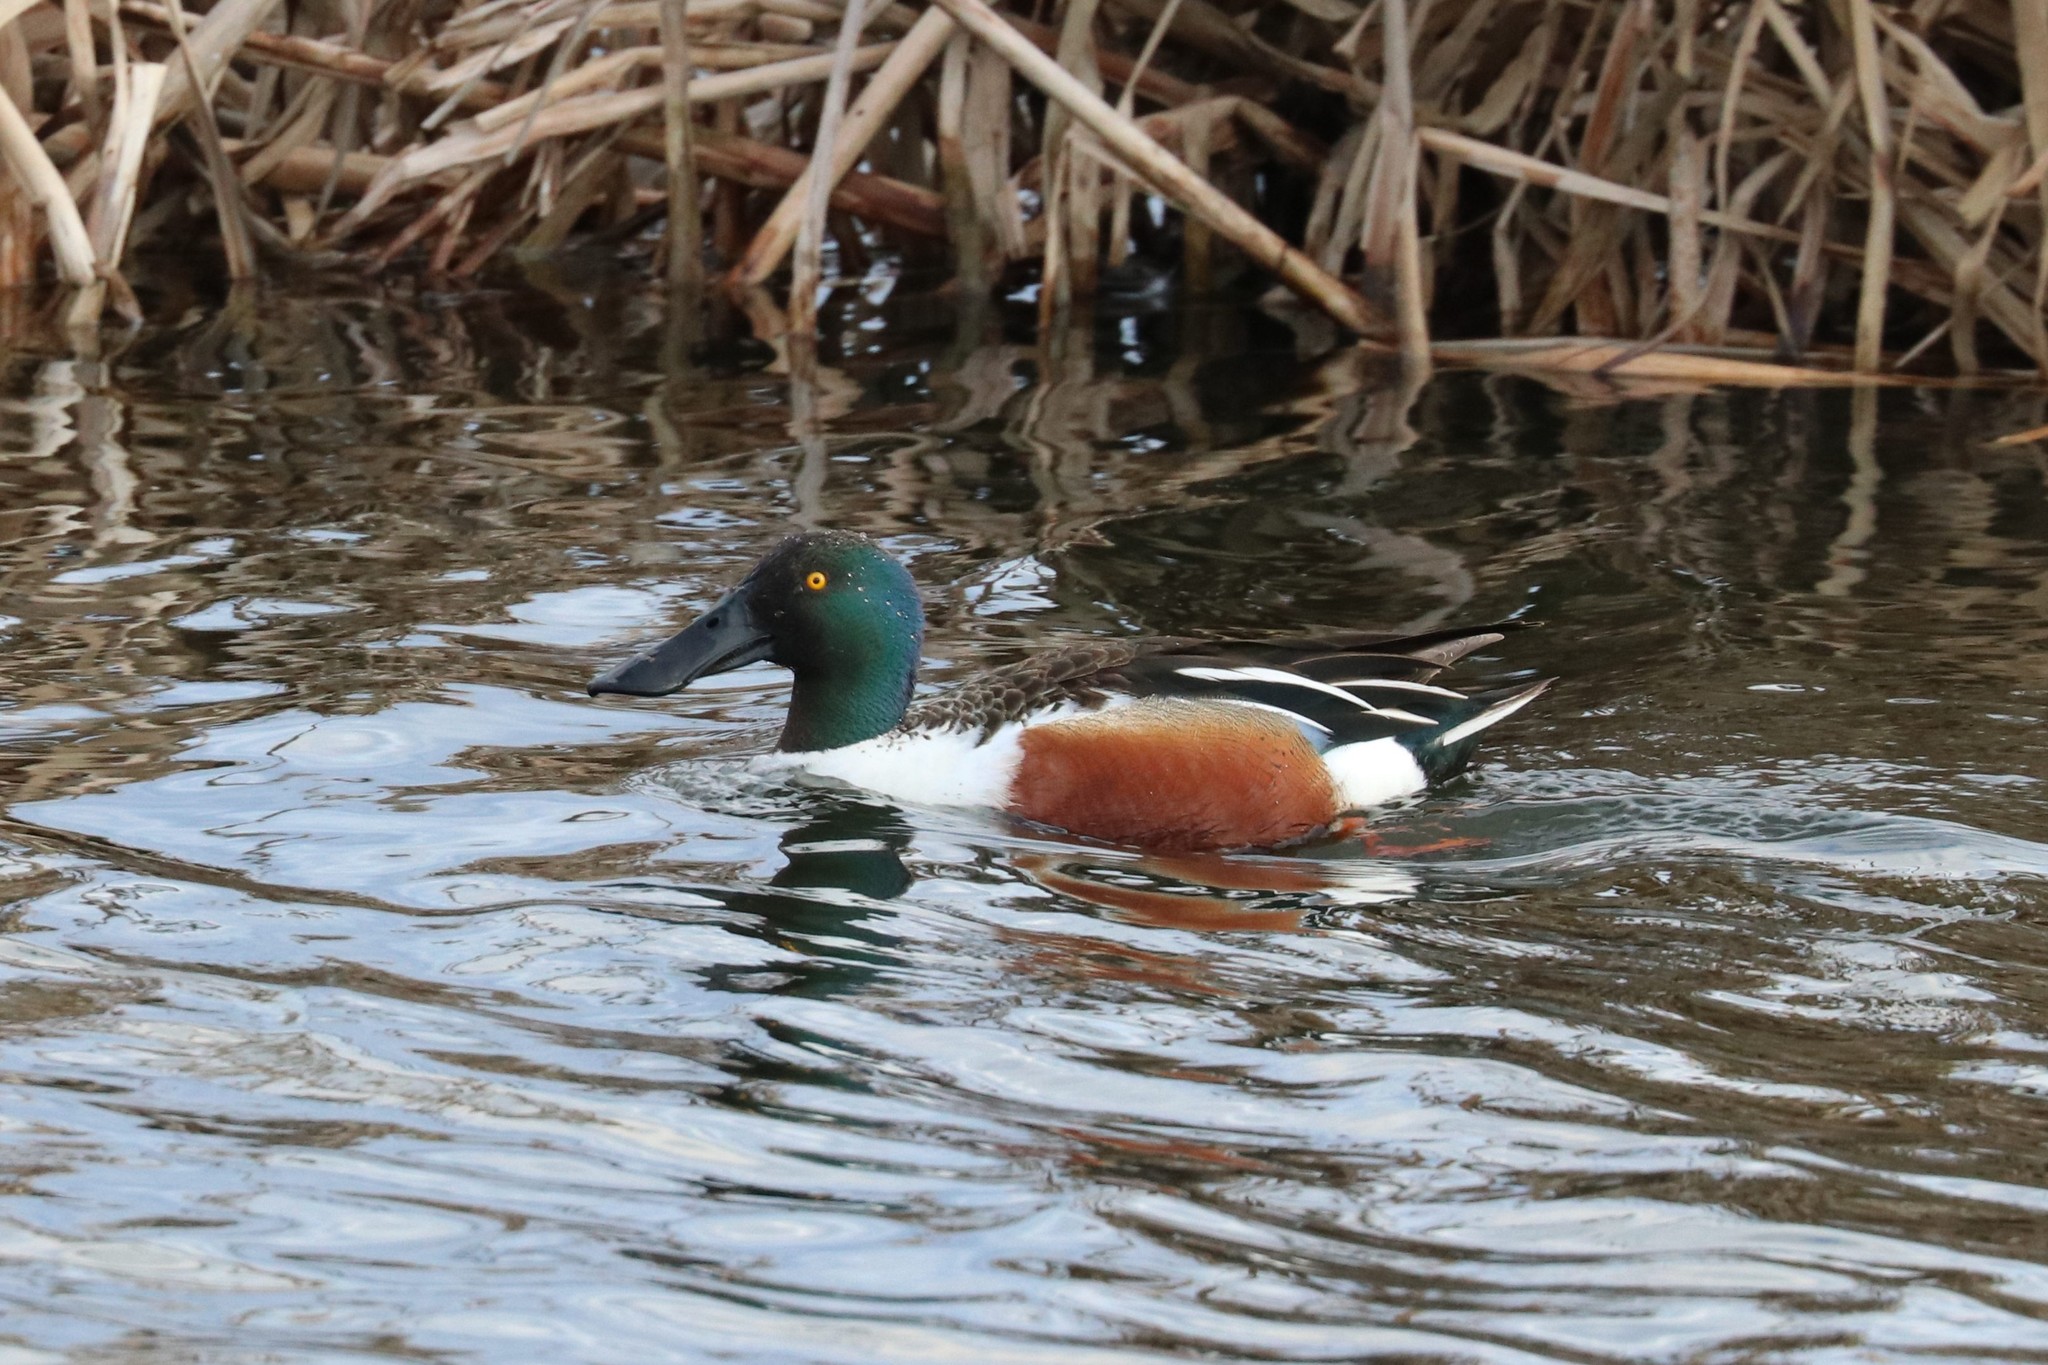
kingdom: Animalia
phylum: Chordata
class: Aves
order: Anseriformes
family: Anatidae
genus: Spatula
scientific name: Spatula clypeata
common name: Northern shoveler
